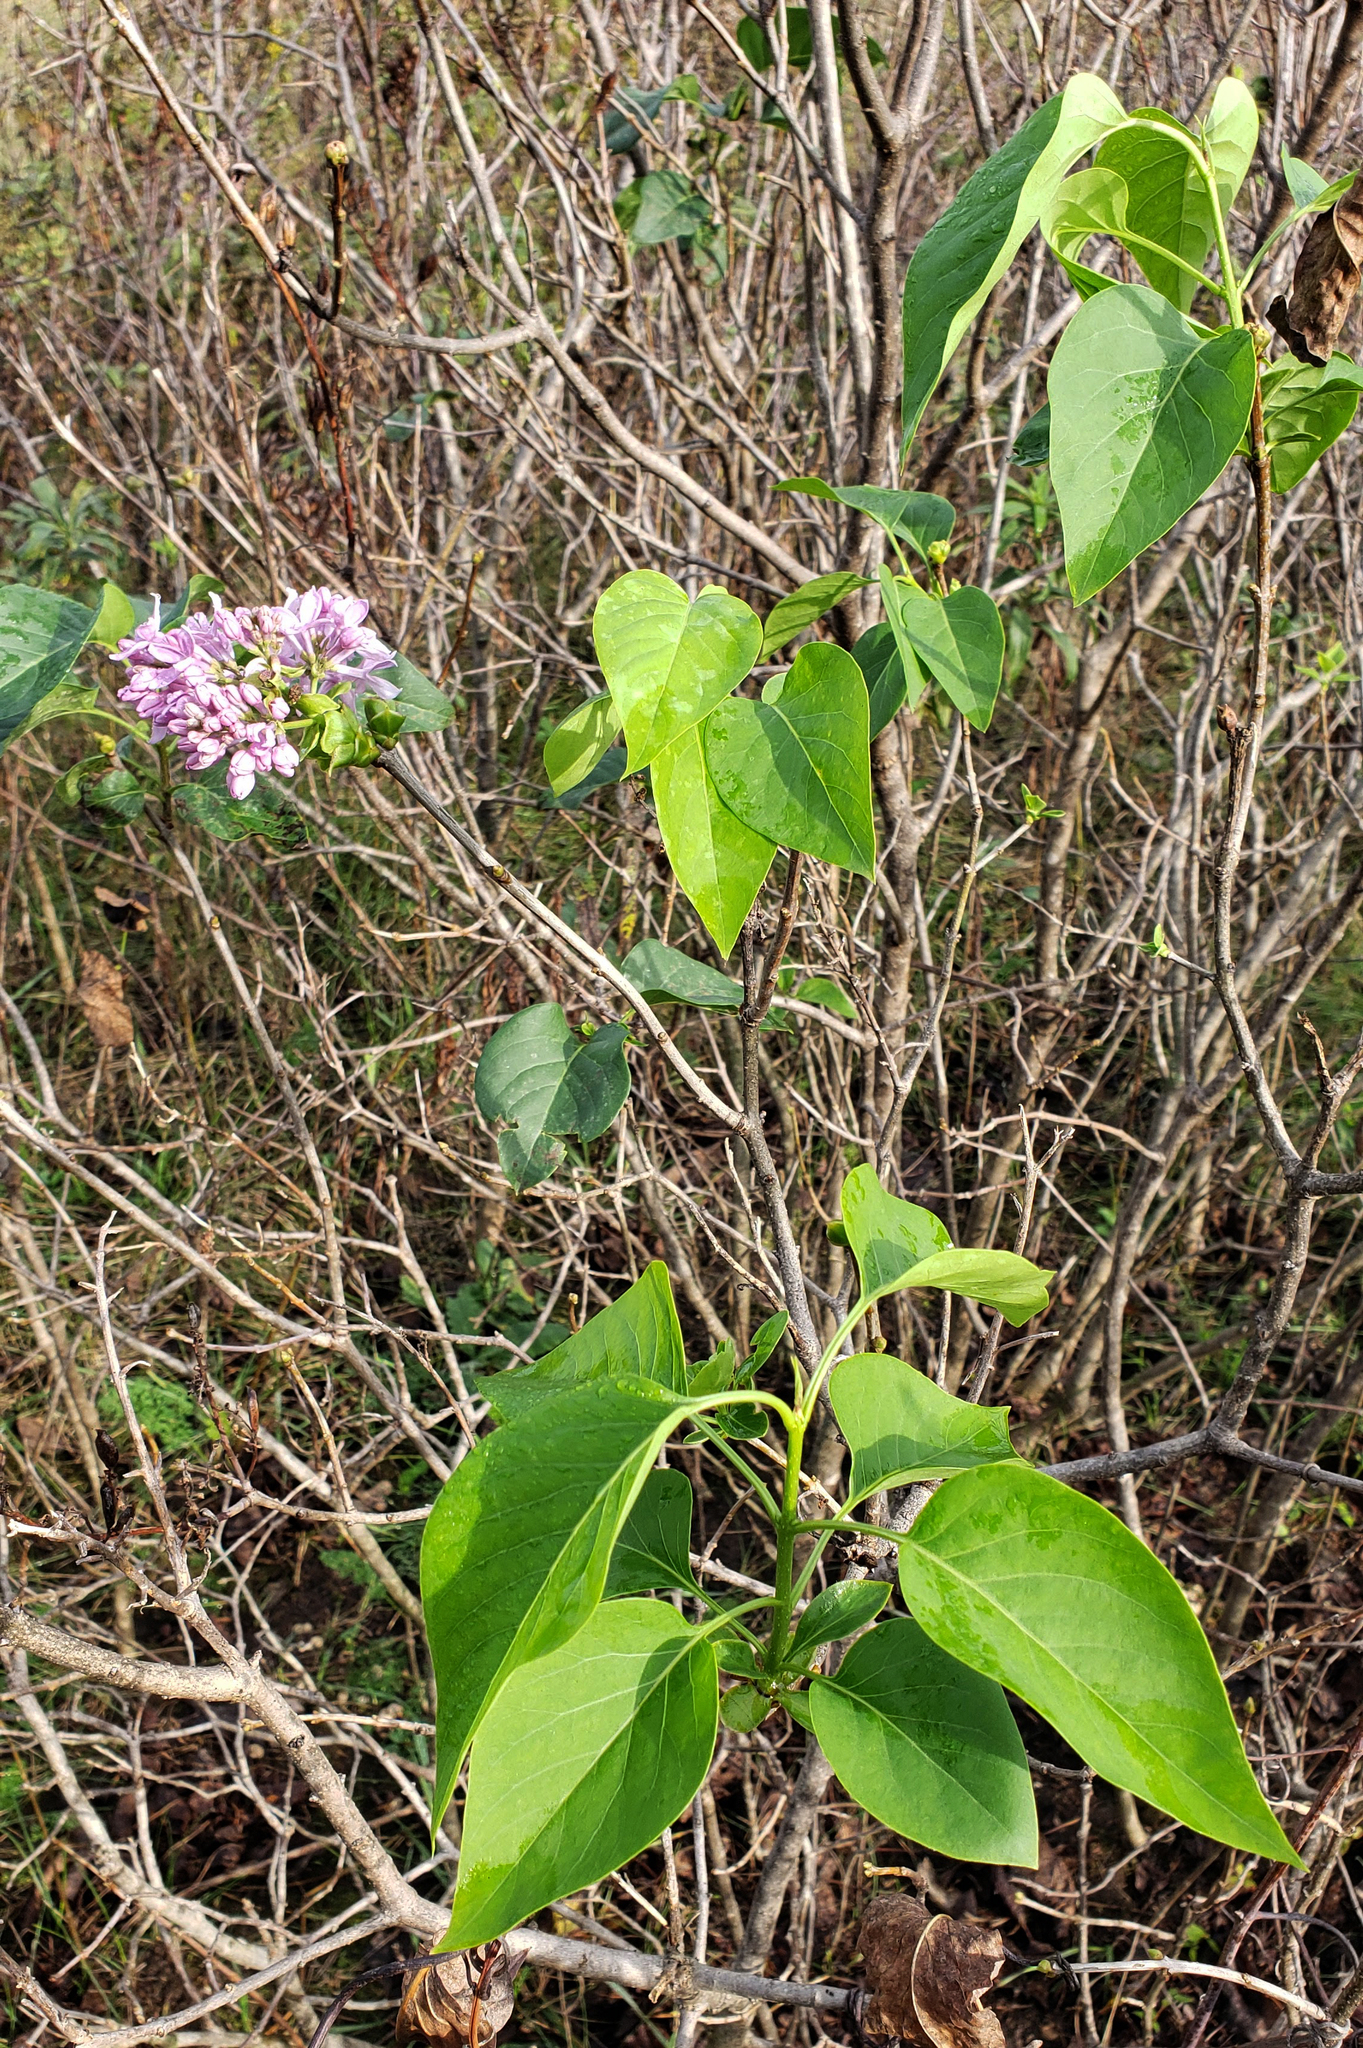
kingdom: Plantae
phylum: Tracheophyta
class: Magnoliopsida
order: Lamiales
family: Oleaceae
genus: Syringa
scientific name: Syringa vulgaris
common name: Common lilac
